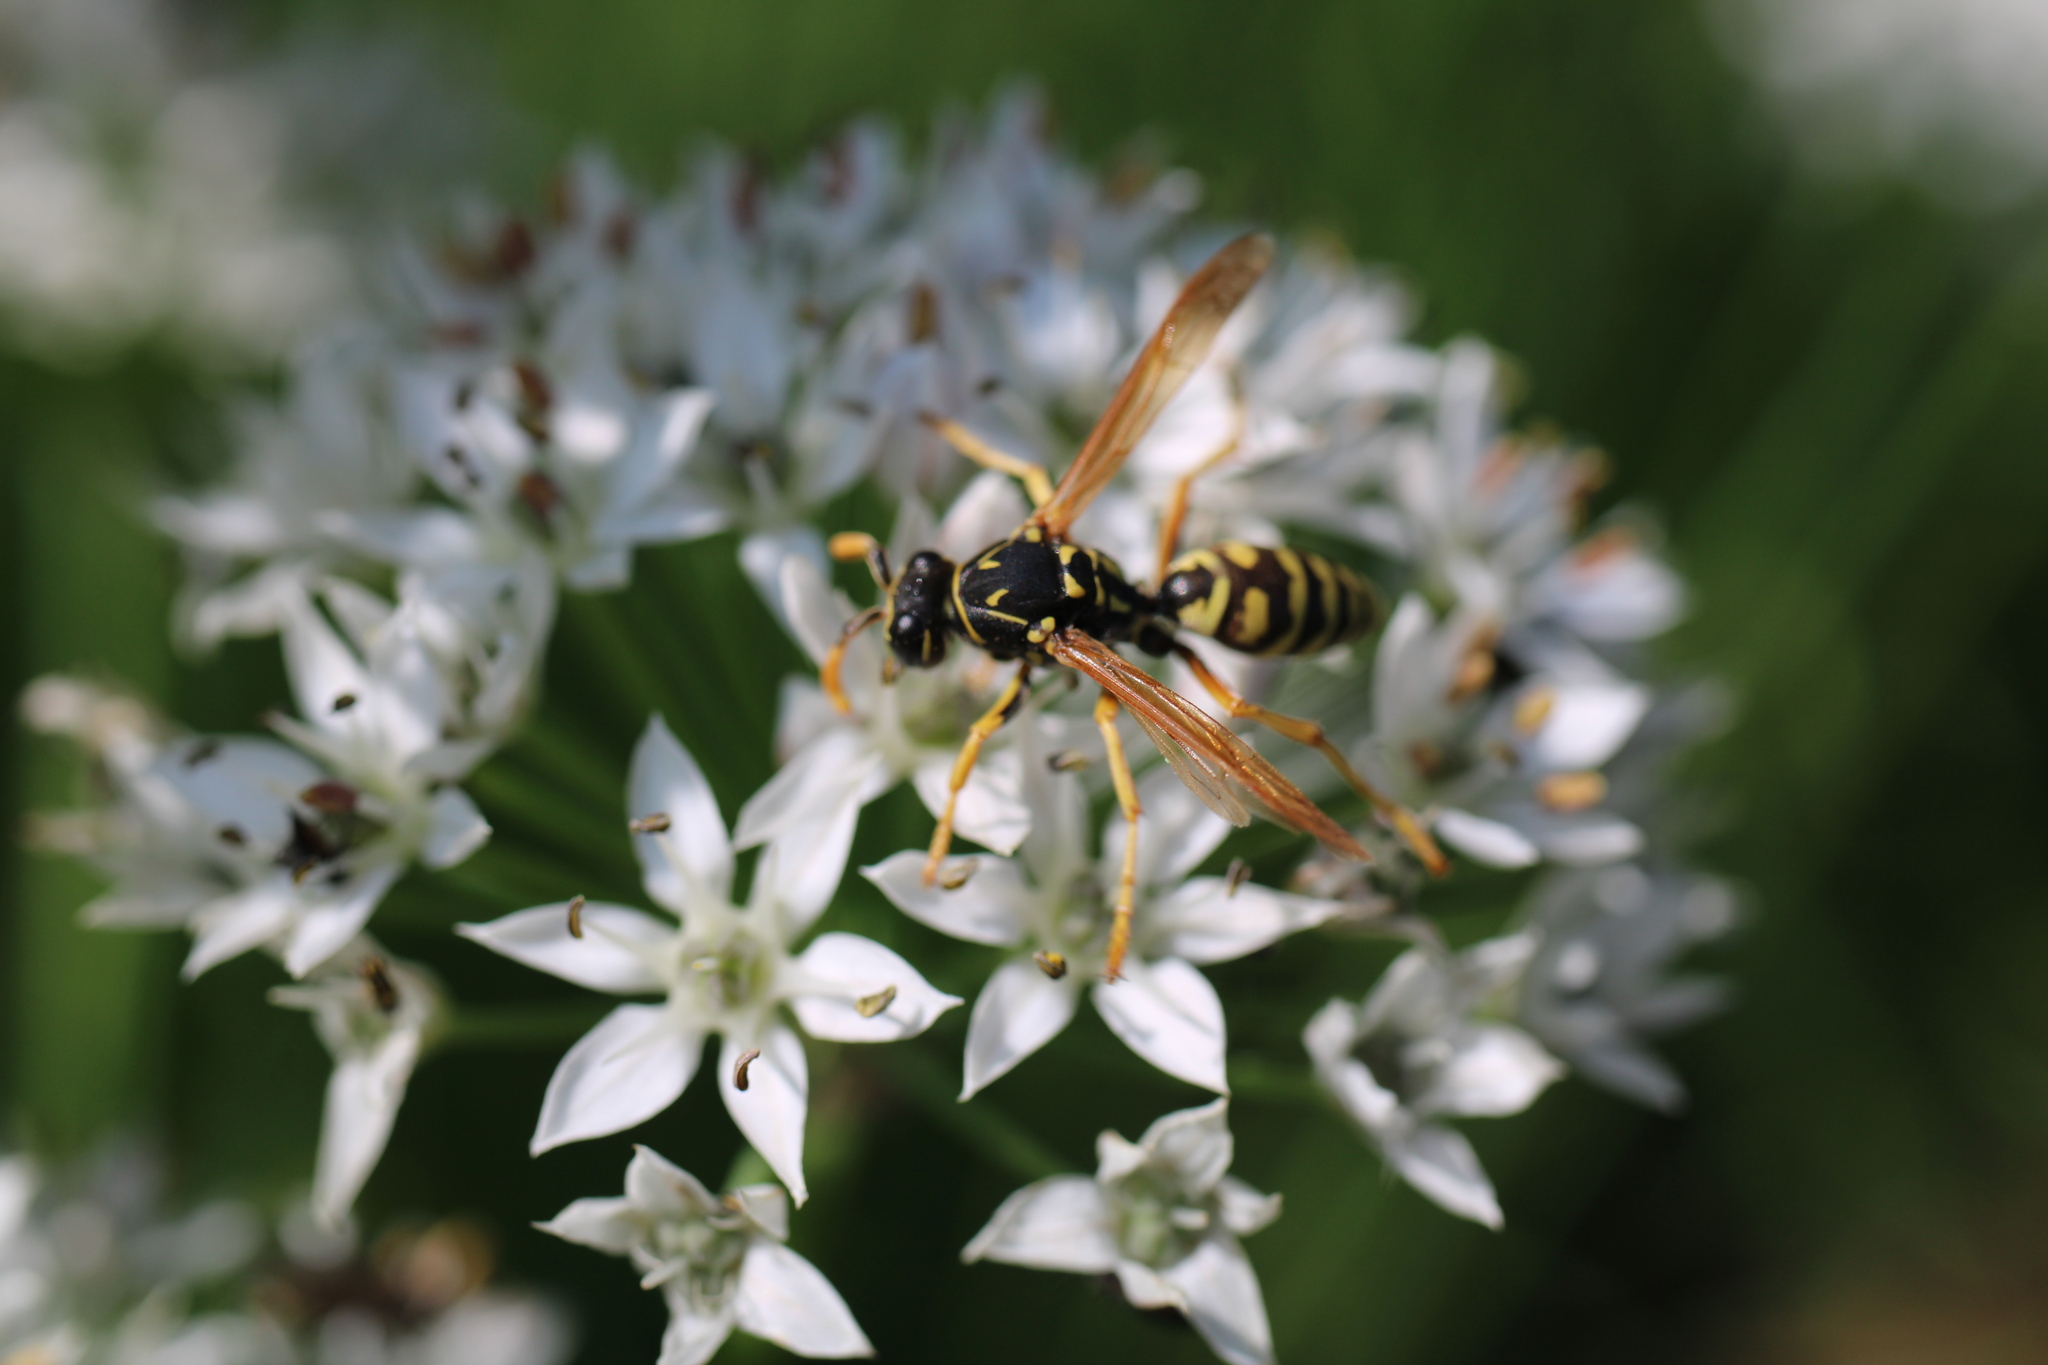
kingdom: Animalia
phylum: Arthropoda
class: Insecta
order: Hymenoptera
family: Eumenidae
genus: Polistes
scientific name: Polistes dominula
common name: Paper wasp
